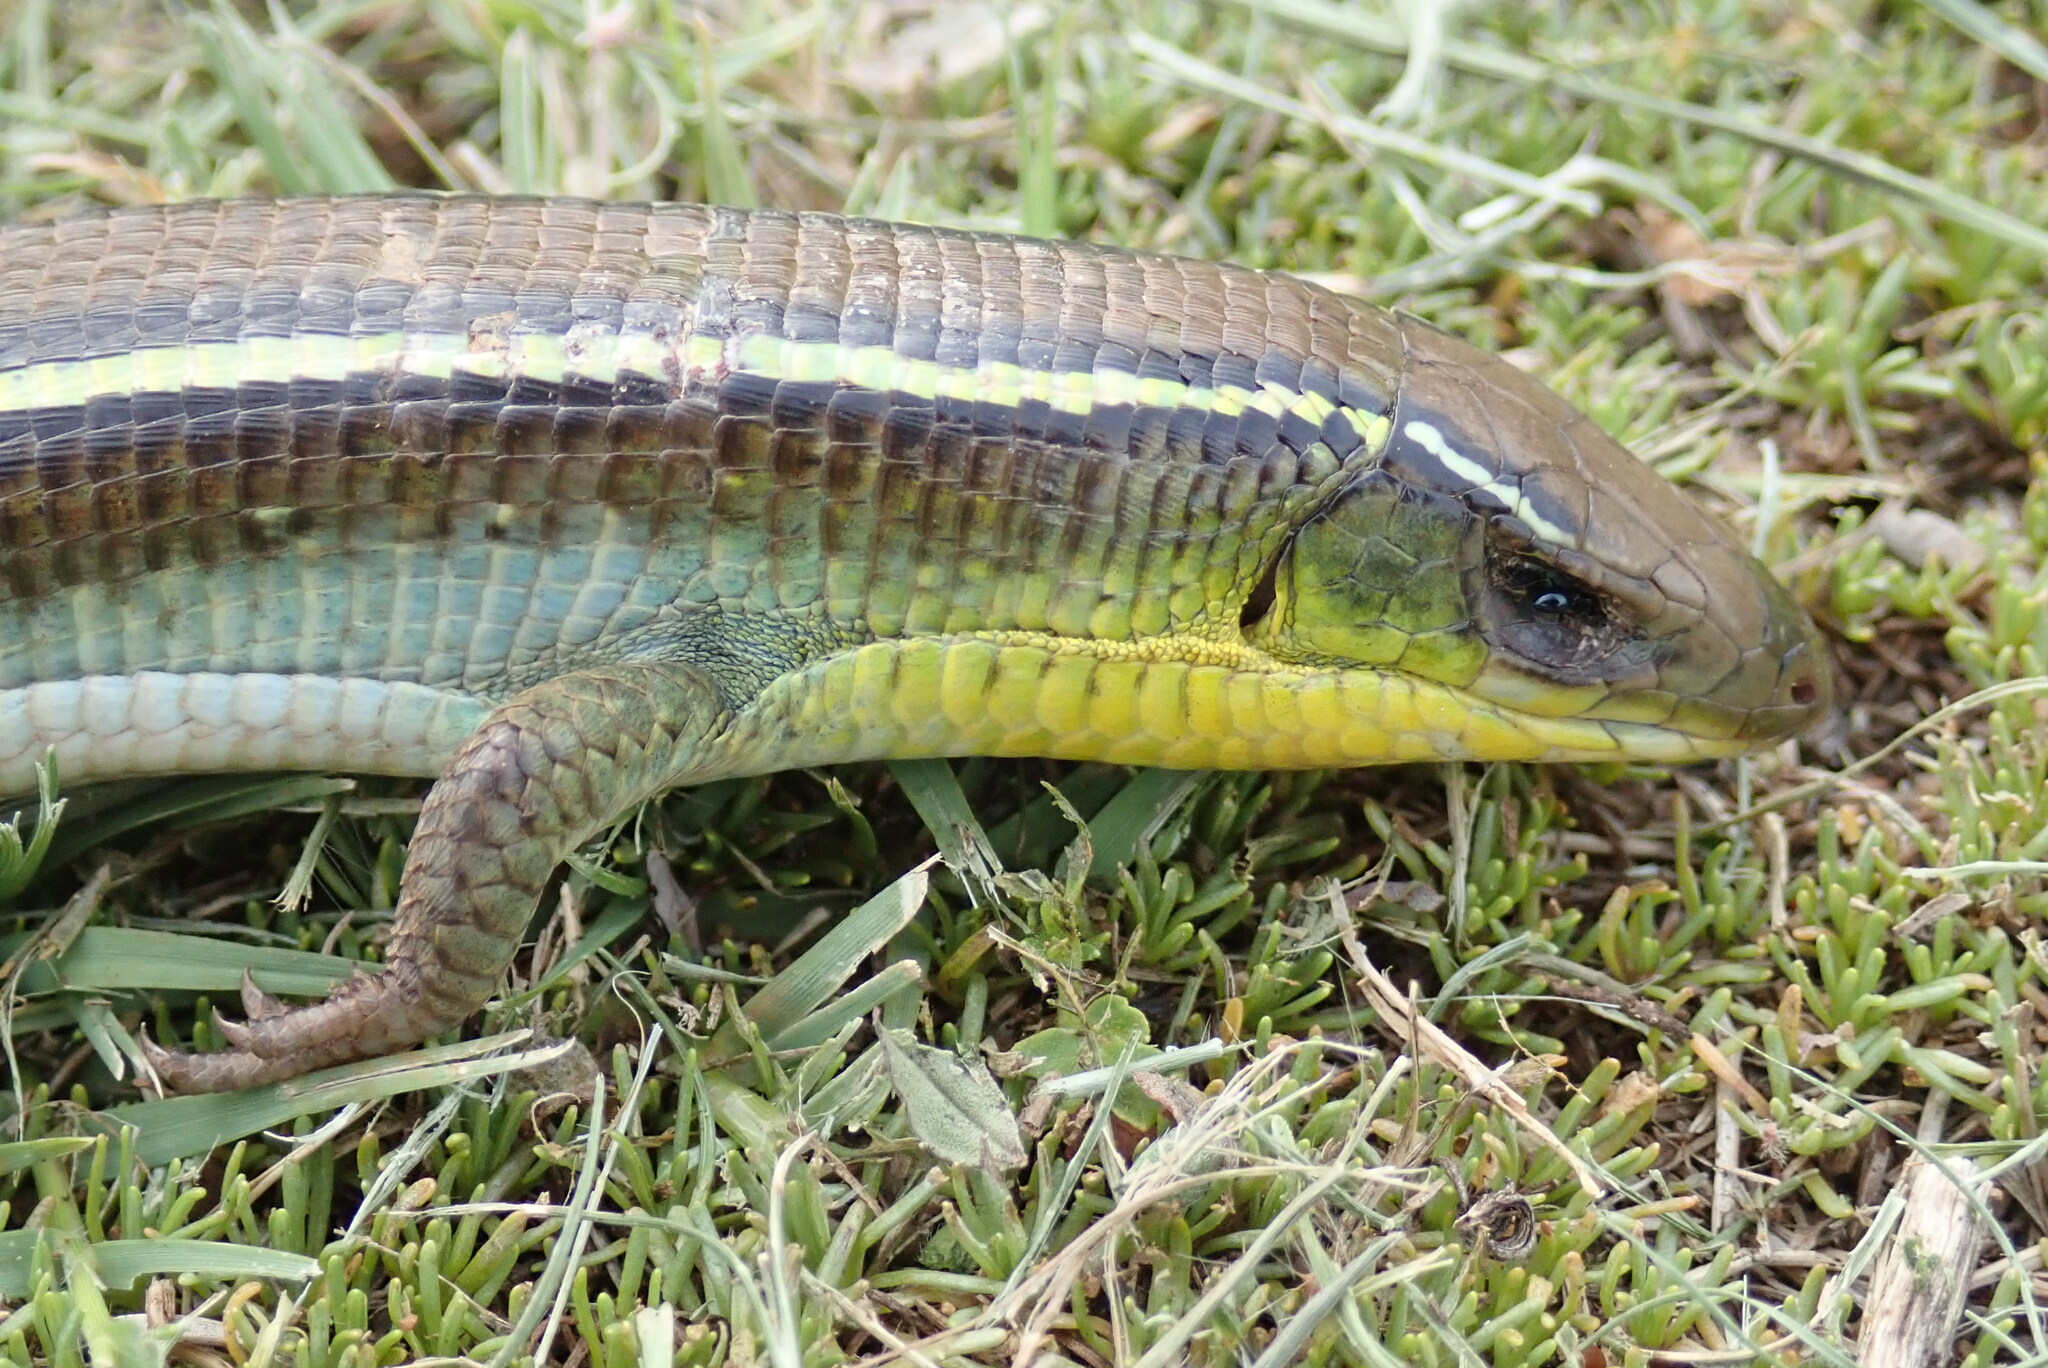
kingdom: Animalia
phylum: Chordata
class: Squamata
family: Gerrhosauridae
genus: Gerrhosaurus
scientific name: Gerrhosaurus flavigularis
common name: Yellow-throated plated lizard
